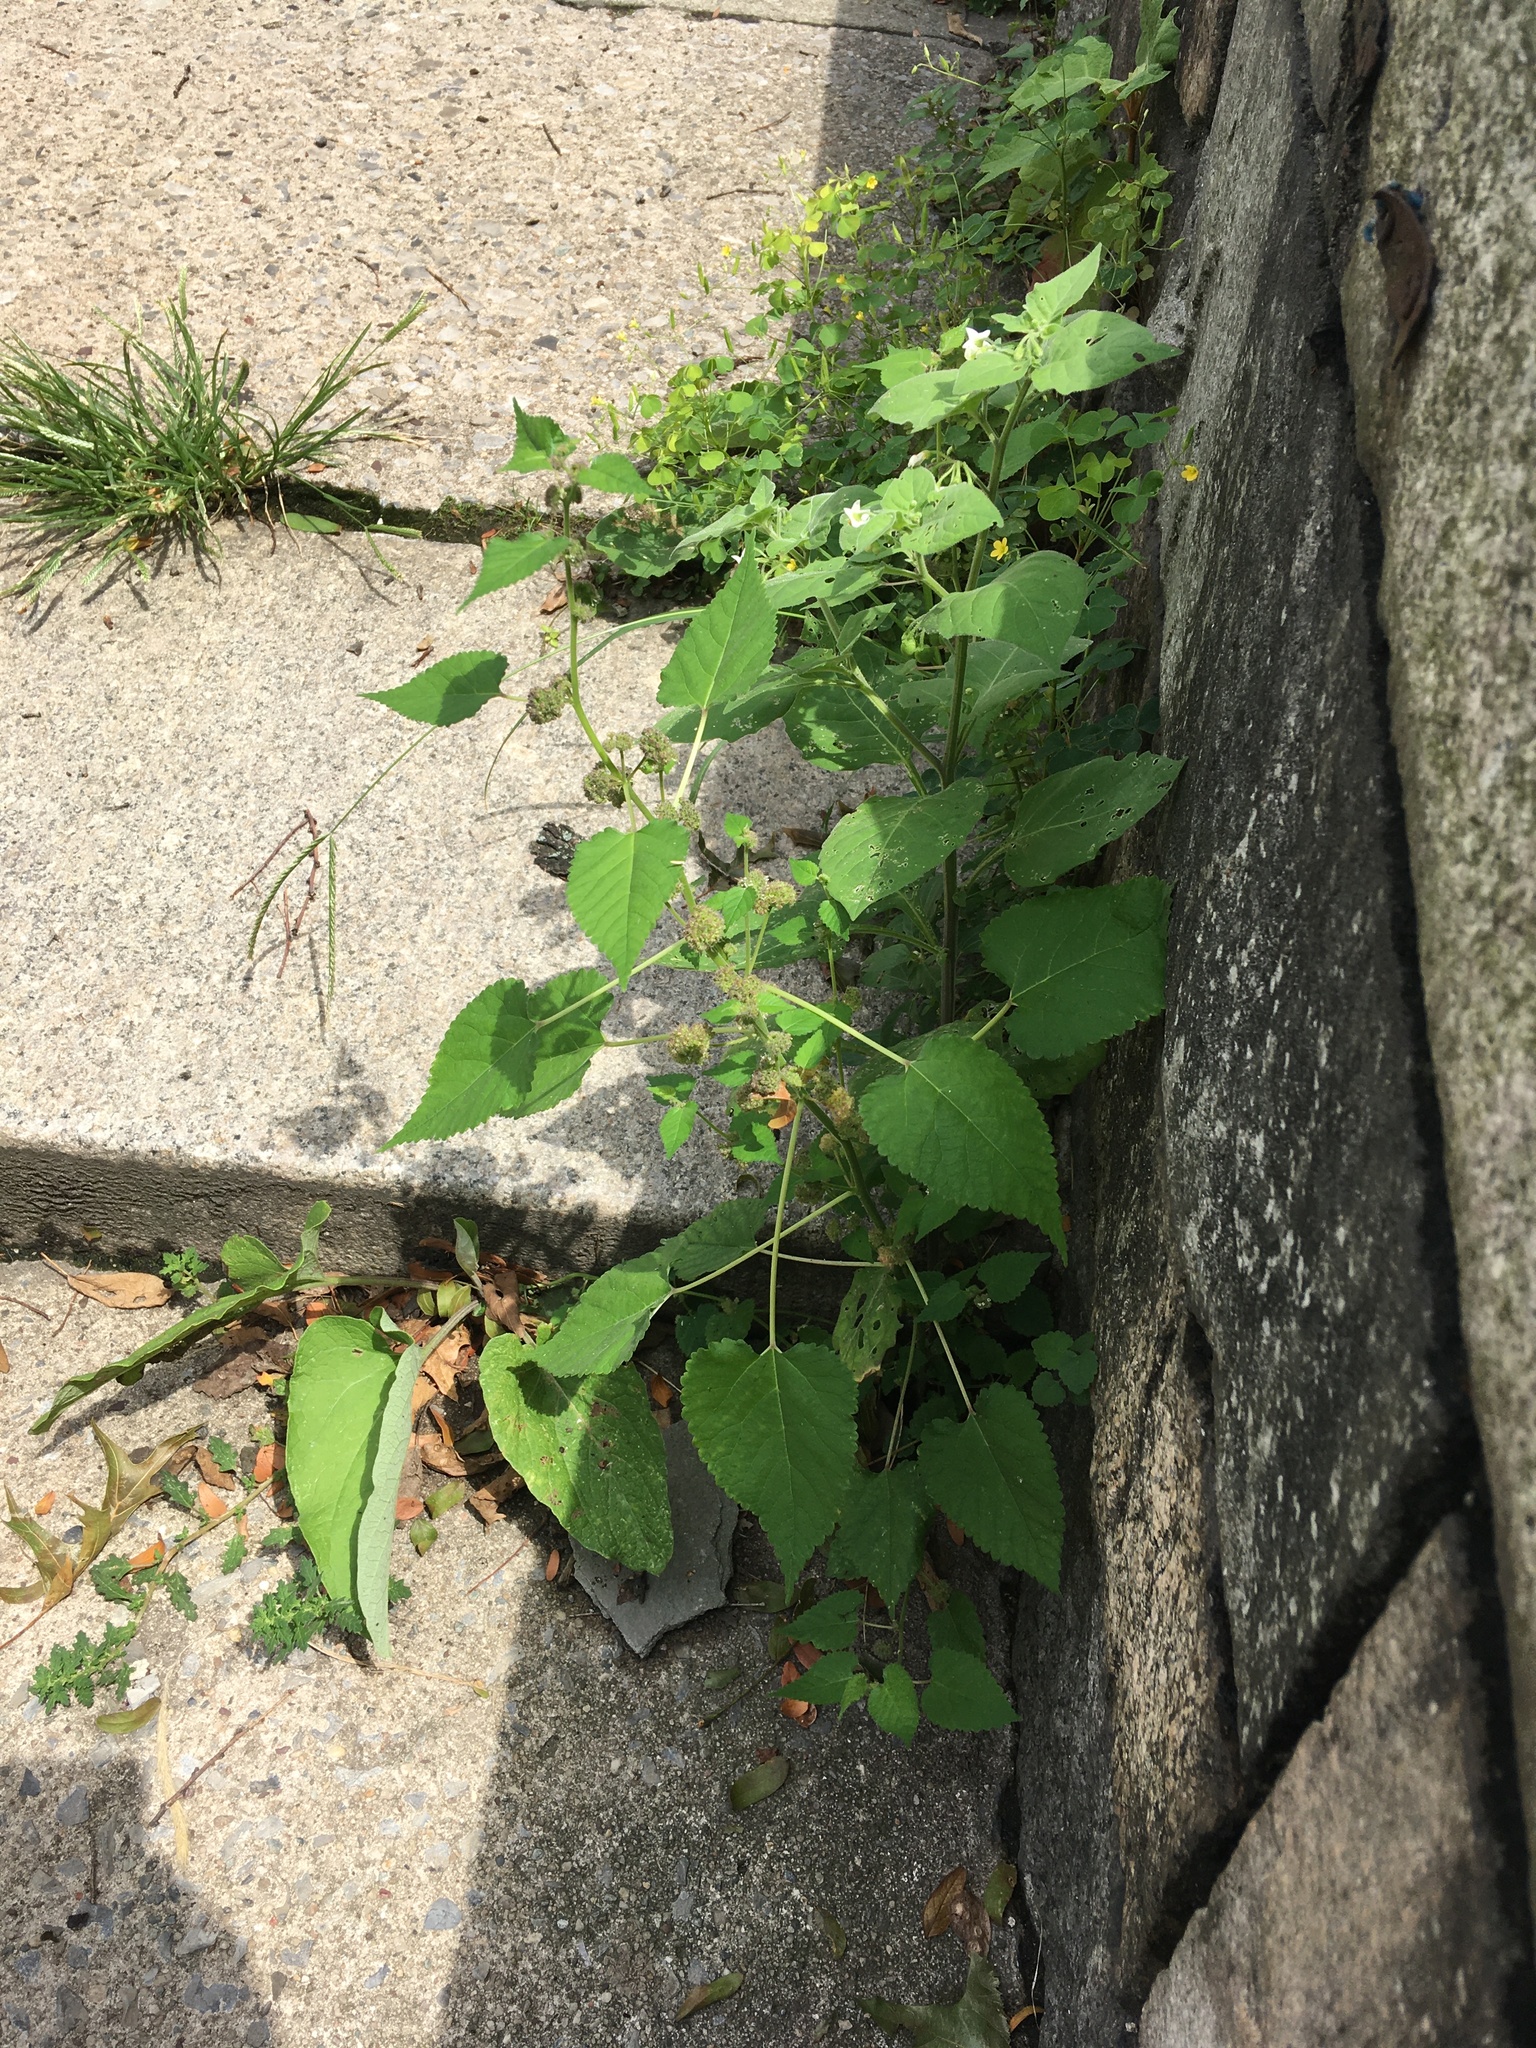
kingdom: Plantae
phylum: Tracheophyta
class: Magnoliopsida
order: Rosales
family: Moraceae
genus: Fatoua
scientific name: Fatoua villosa
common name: Hairy crabweed
